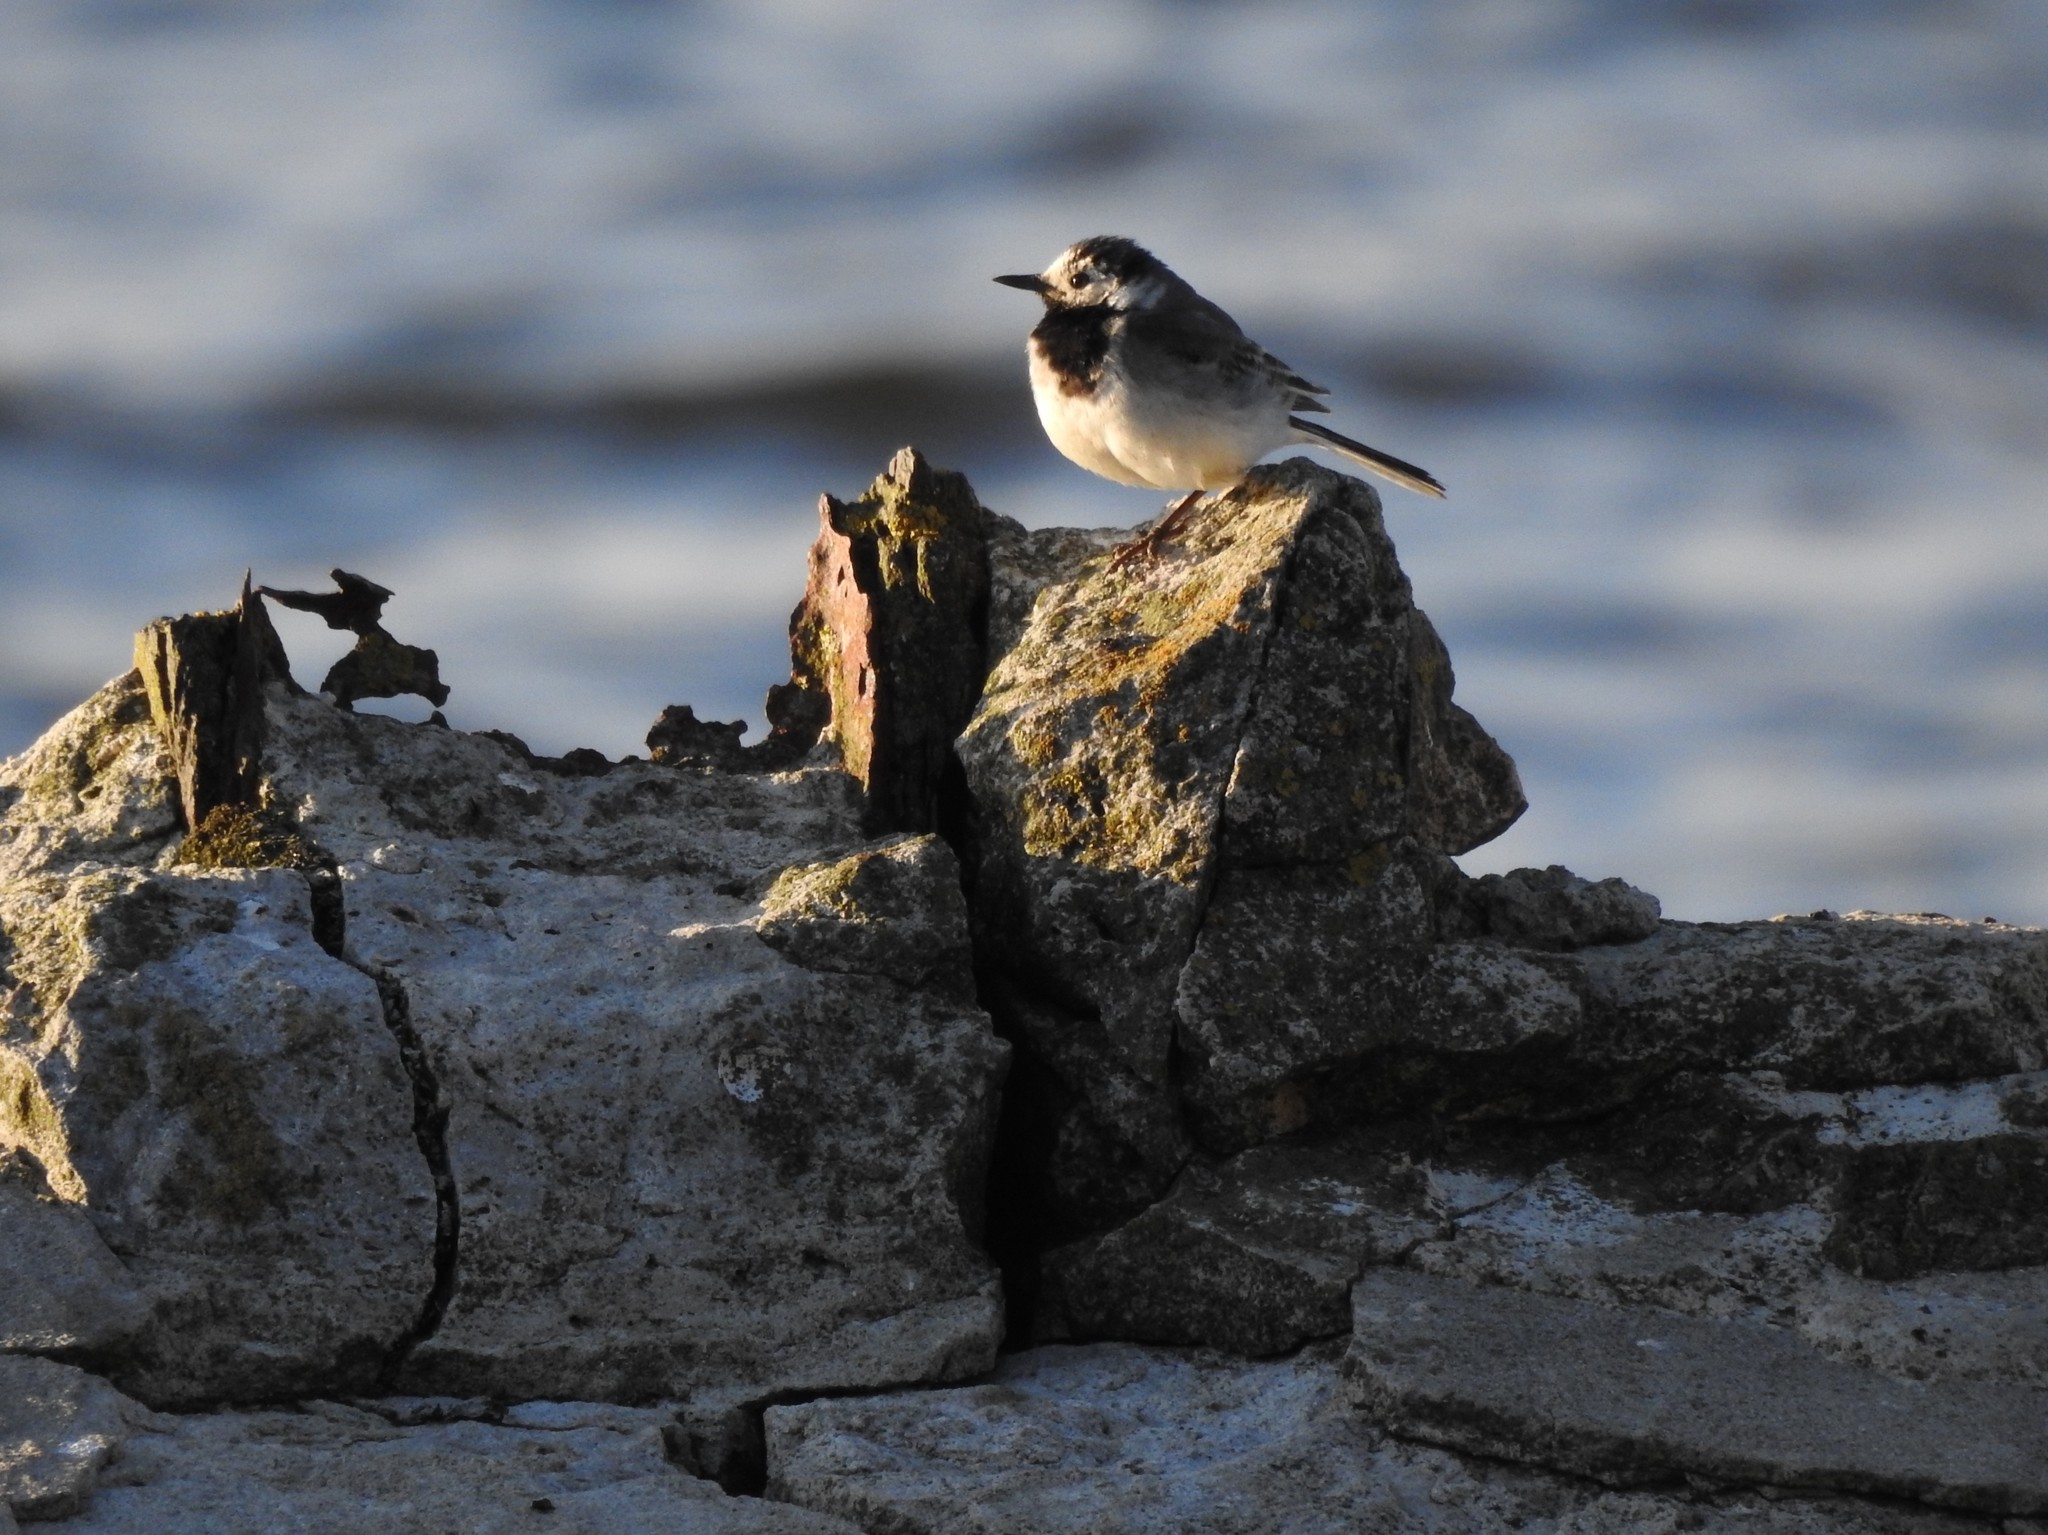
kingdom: Animalia
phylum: Chordata
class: Aves
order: Passeriformes
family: Motacillidae
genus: Motacilla
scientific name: Motacilla alba
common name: White wagtail
